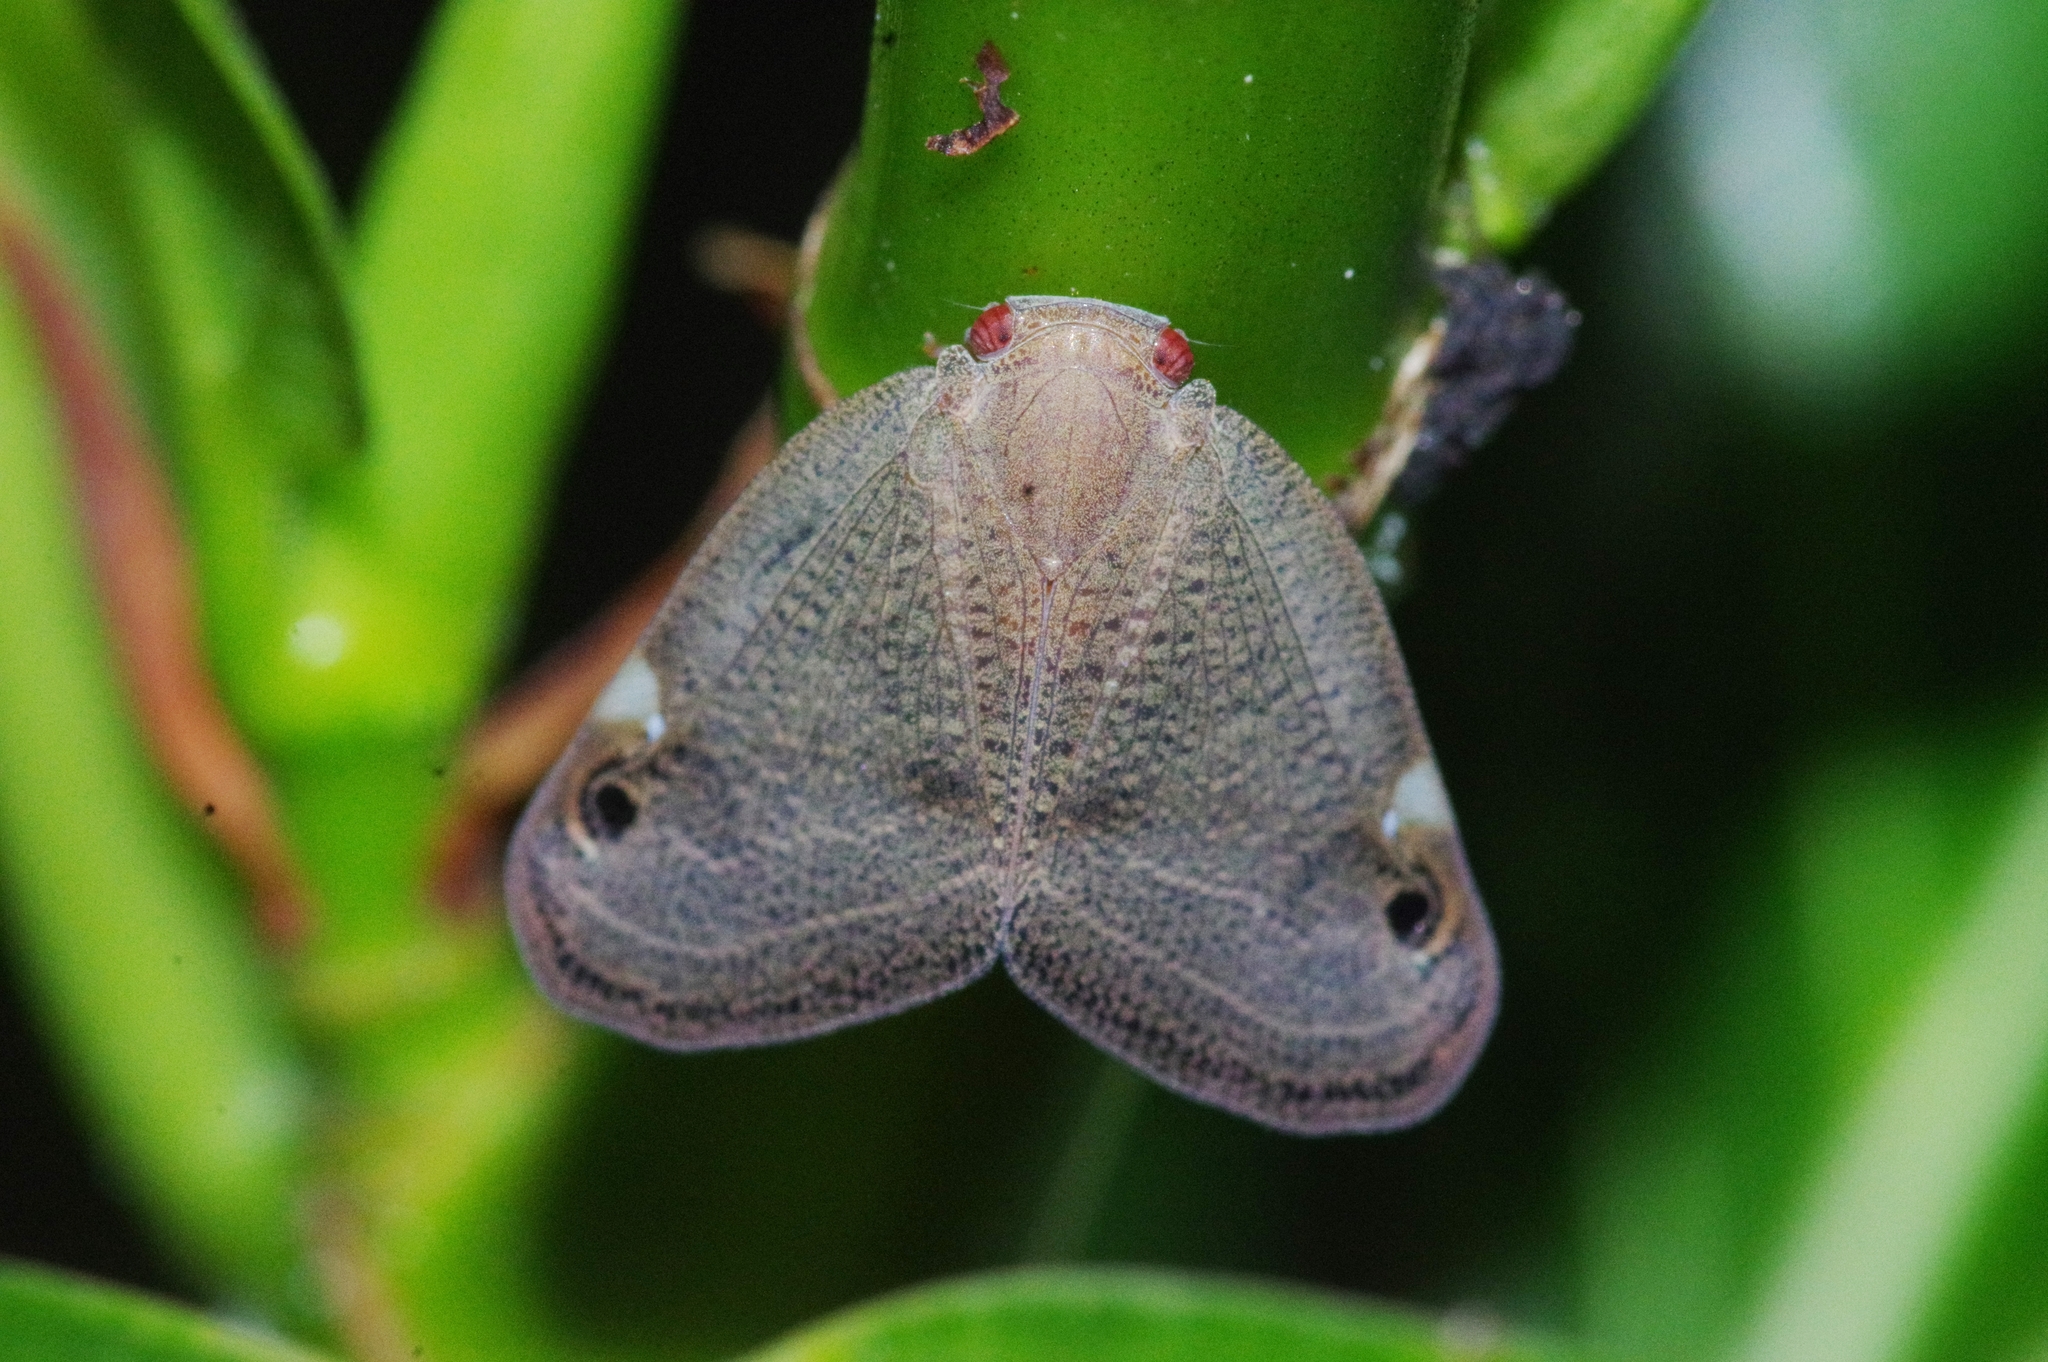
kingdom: Animalia
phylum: Arthropoda
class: Insecta
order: Hemiptera
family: Ricaniidae
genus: Ricania
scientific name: Ricania binotata
